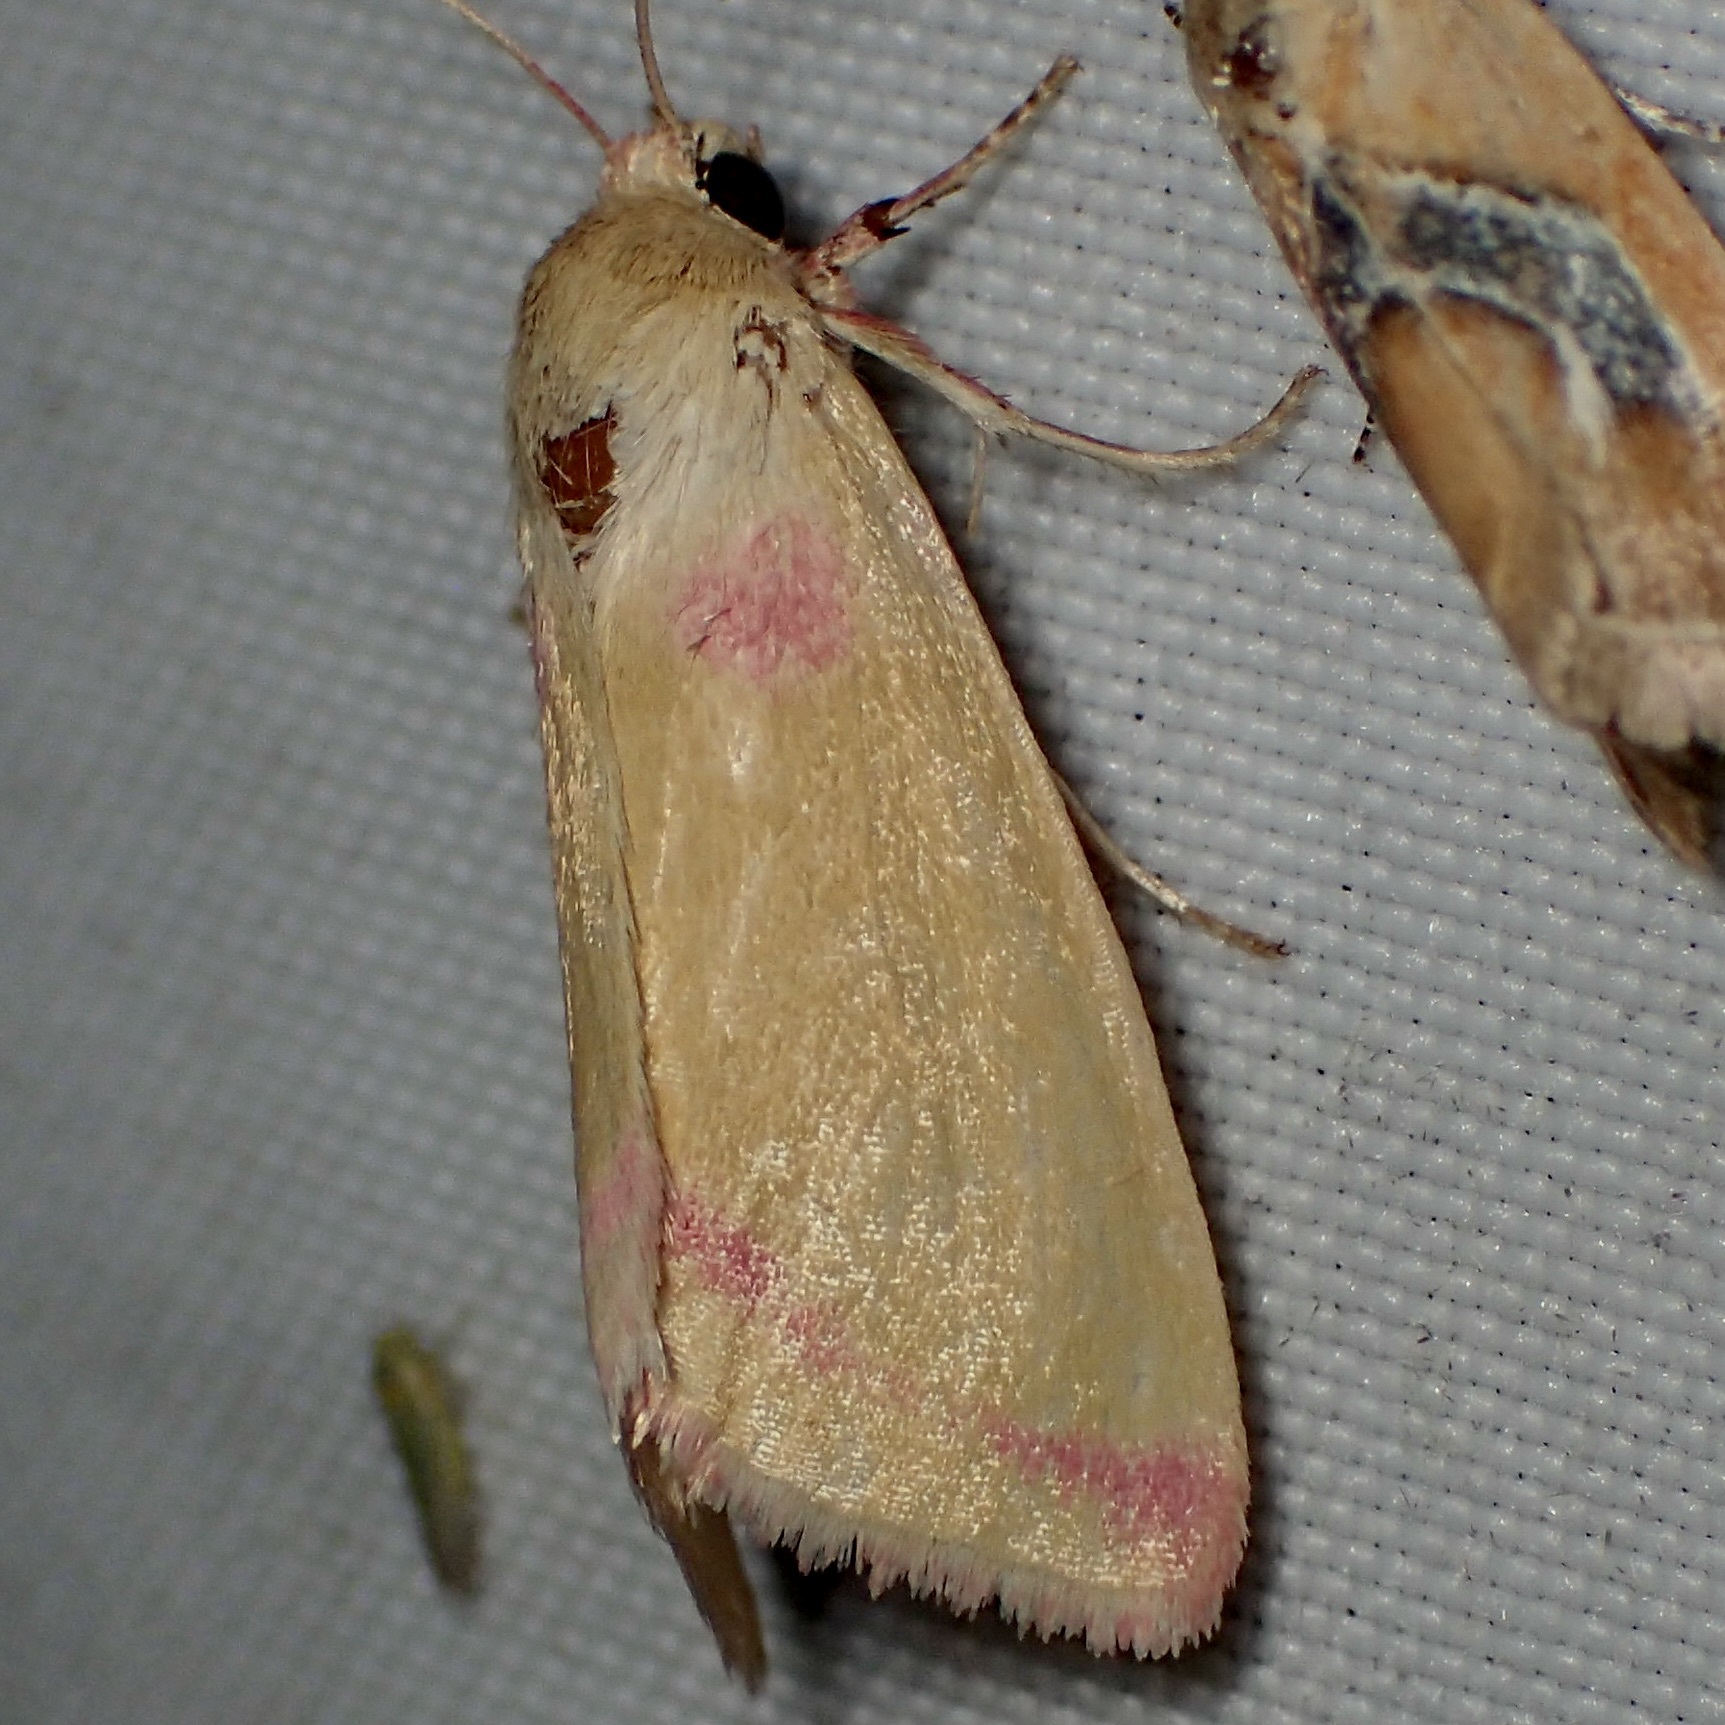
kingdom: Animalia
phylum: Arthropoda
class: Insecta
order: Lepidoptera
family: Noctuidae
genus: Heliocheilus
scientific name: Heliocheilus toralis
